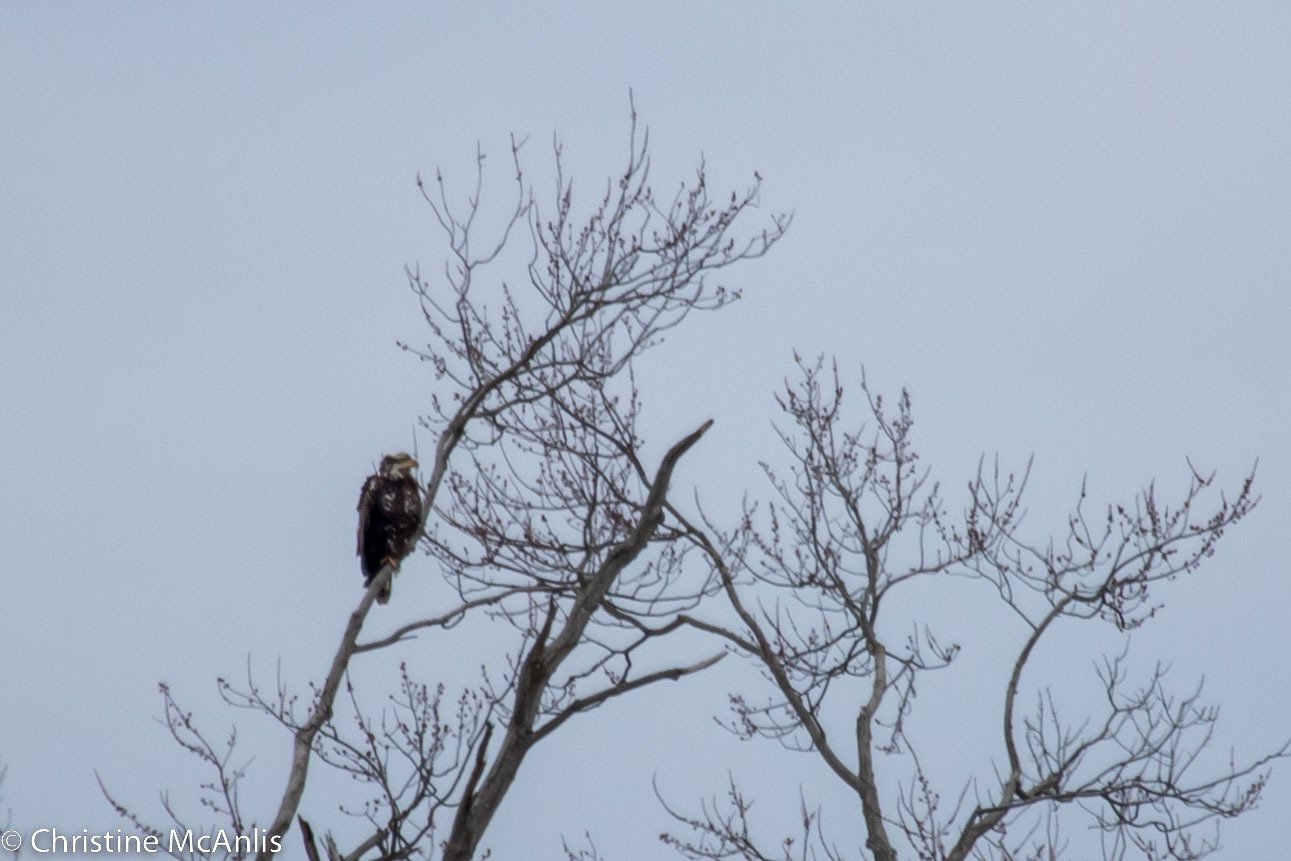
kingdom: Animalia
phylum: Chordata
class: Aves
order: Accipitriformes
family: Accipitridae
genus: Haliaeetus
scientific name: Haliaeetus leucocephalus
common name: Bald eagle
